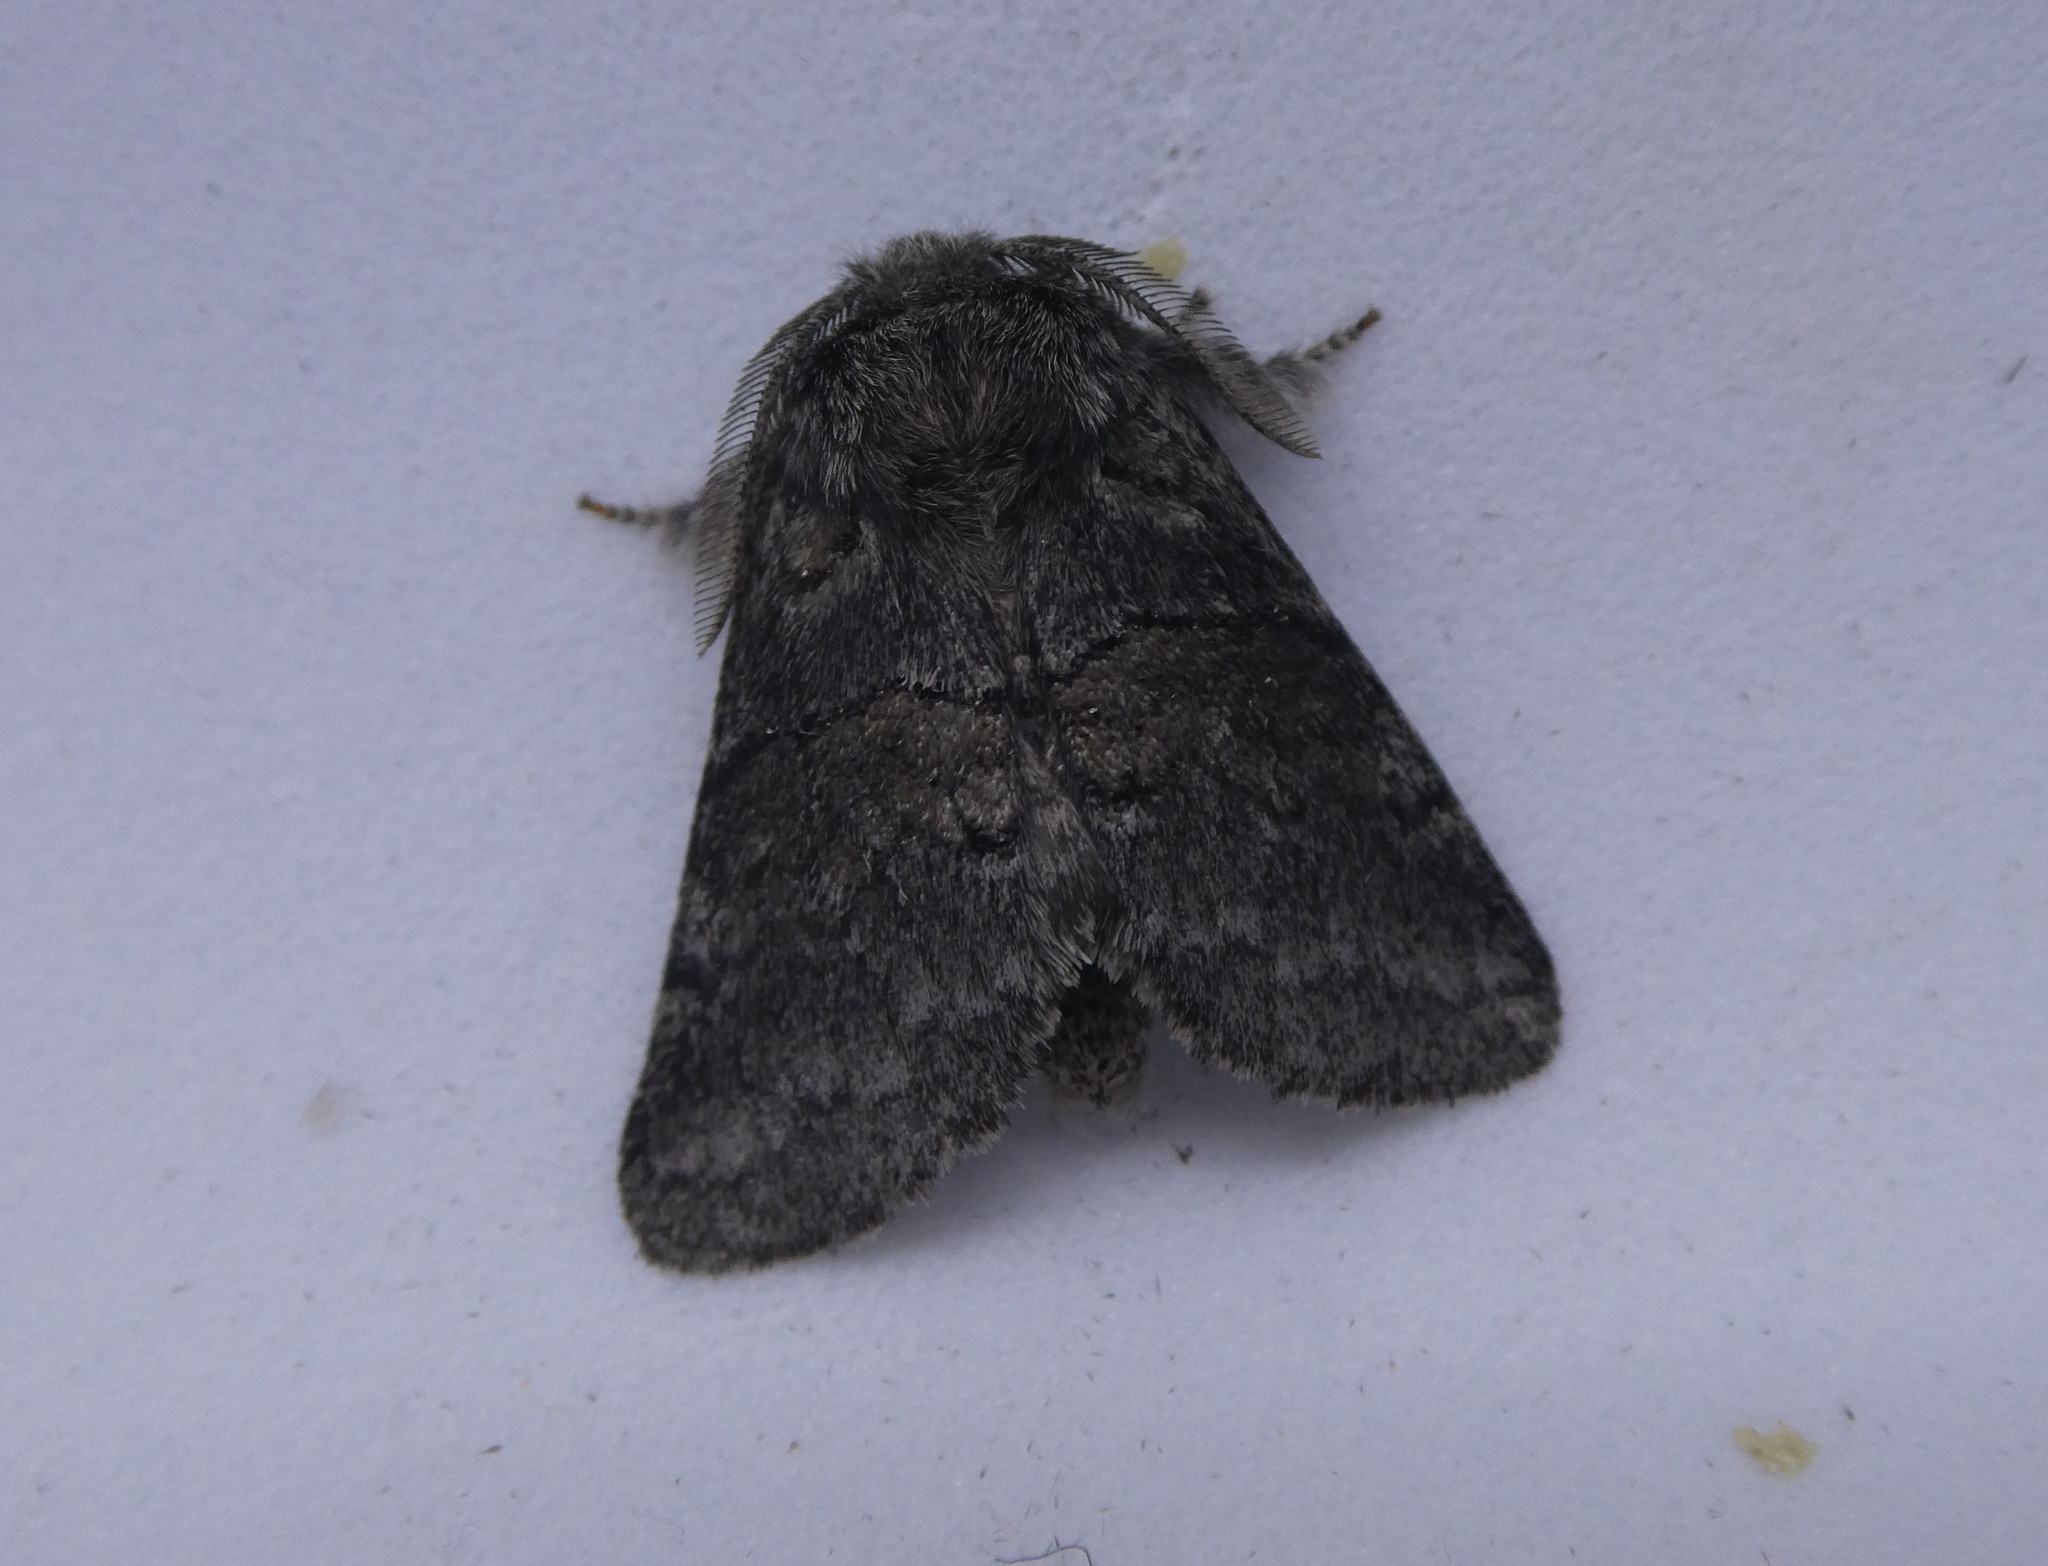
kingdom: Animalia
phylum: Arthropoda
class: Insecta
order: Lepidoptera
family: Notodontidae
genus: Gluphisia
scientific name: Gluphisia septentrionis
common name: Common gluphisia
